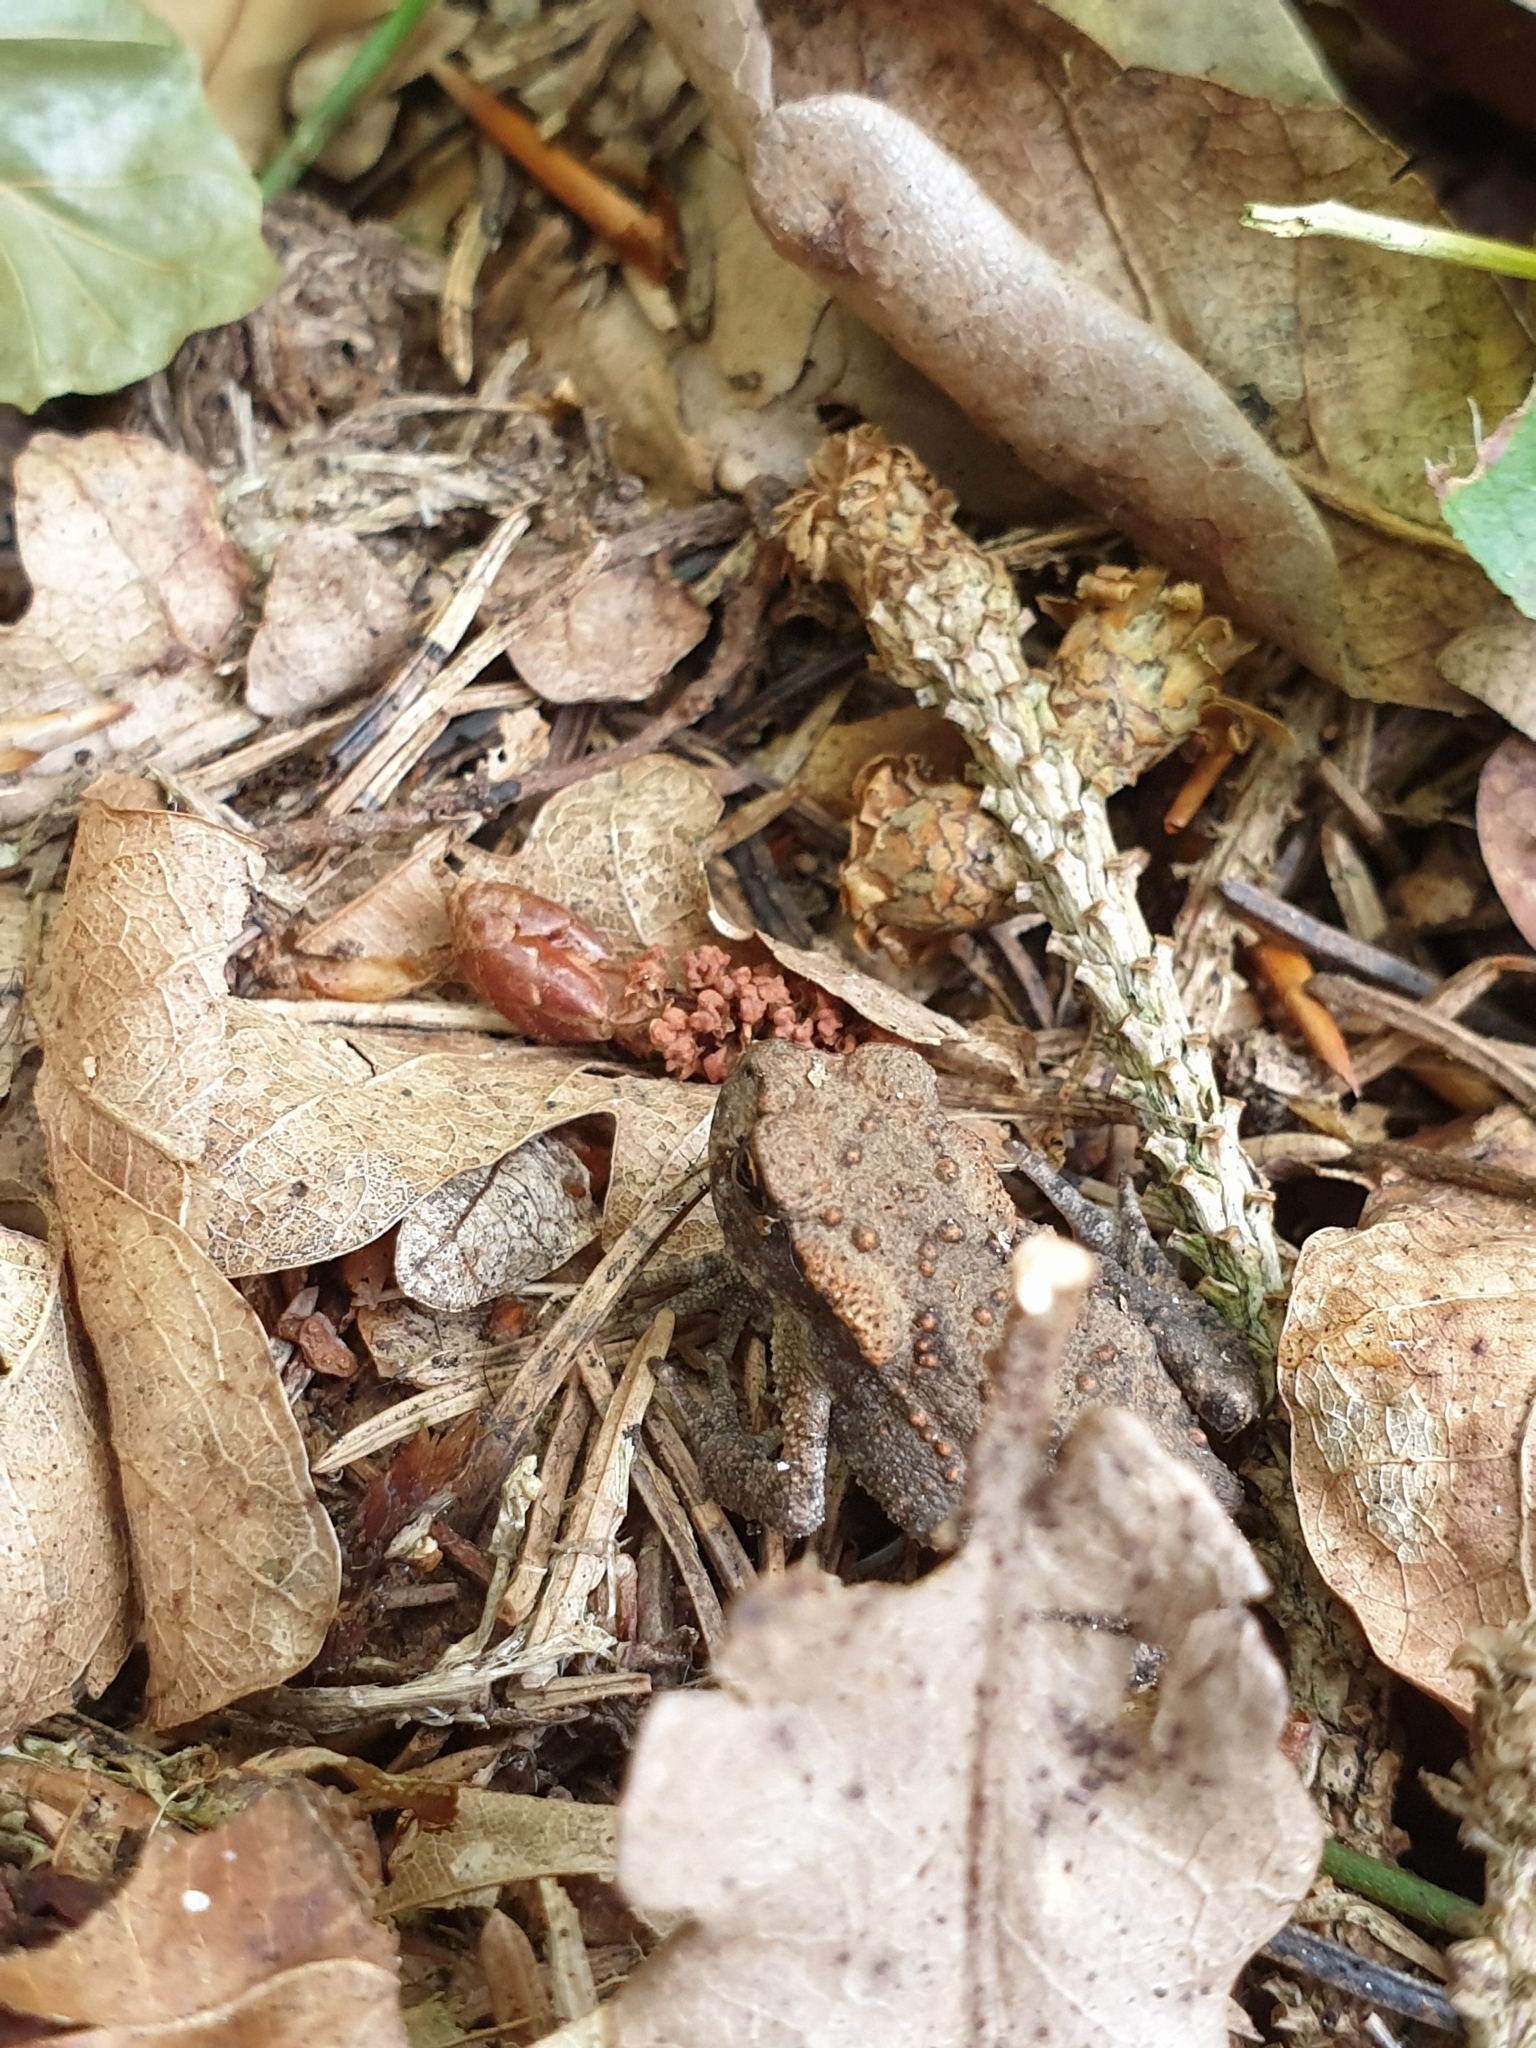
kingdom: Animalia
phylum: Chordata
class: Amphibia
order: Anura
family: Bufonidae
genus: Bufo
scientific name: Bufo bufo
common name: Common toad
